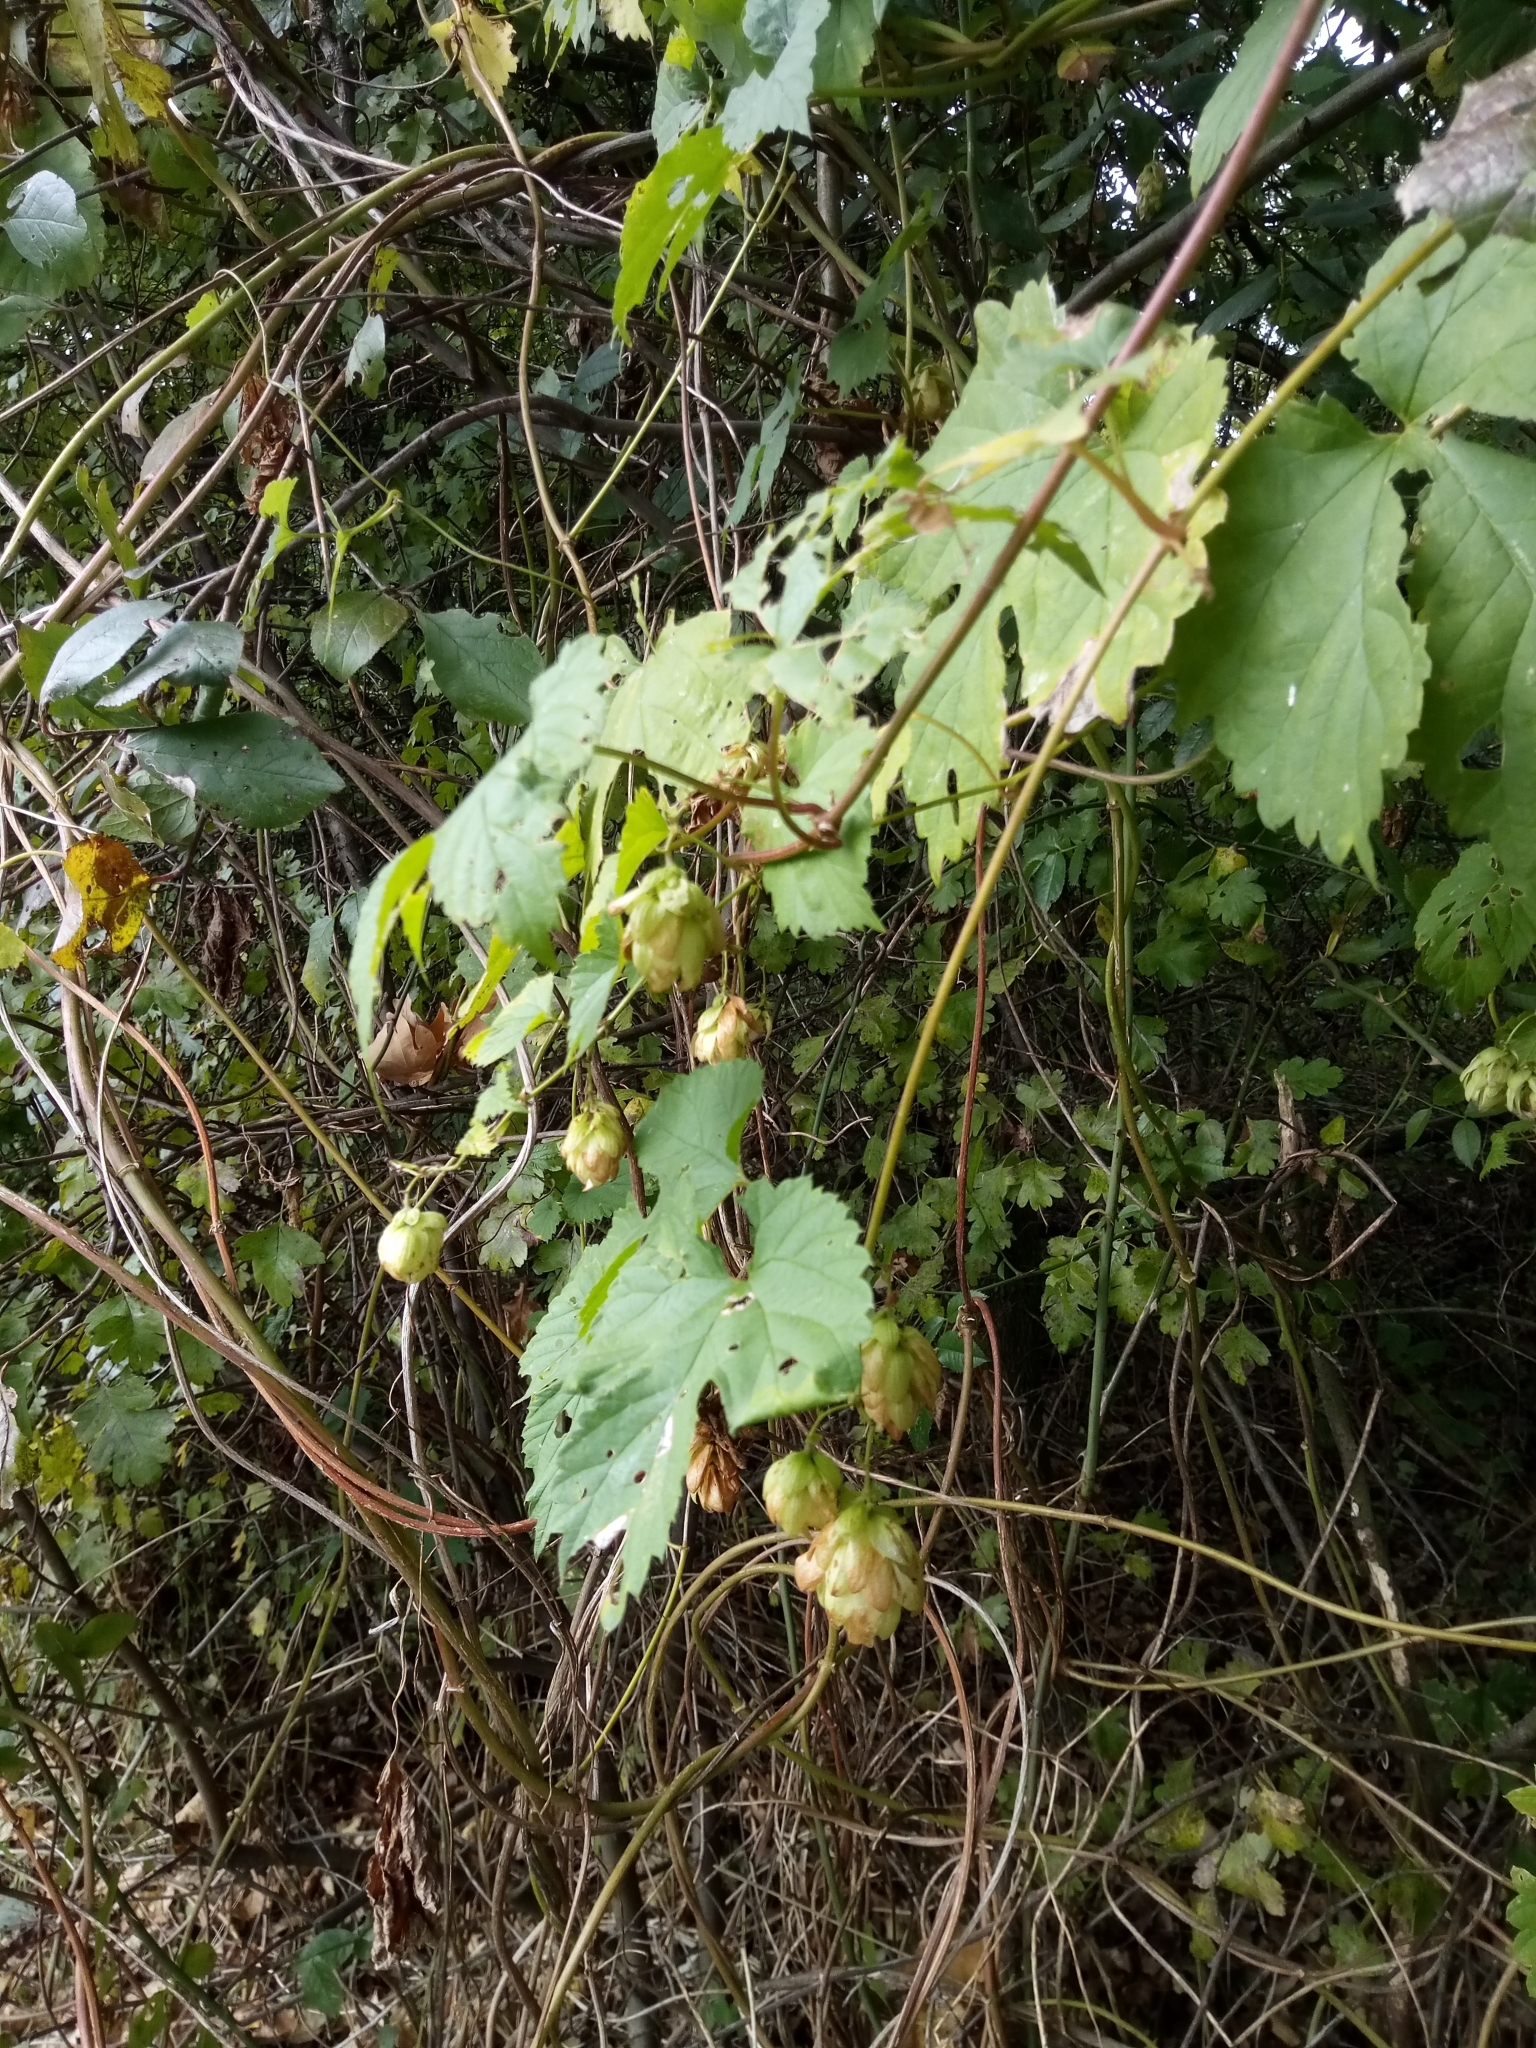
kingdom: Plantae
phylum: Tracheophyta
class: Magnoliopsida
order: Rosales
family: Cannabaceae
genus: Humulus
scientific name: Humulus lupulus
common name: Hop
